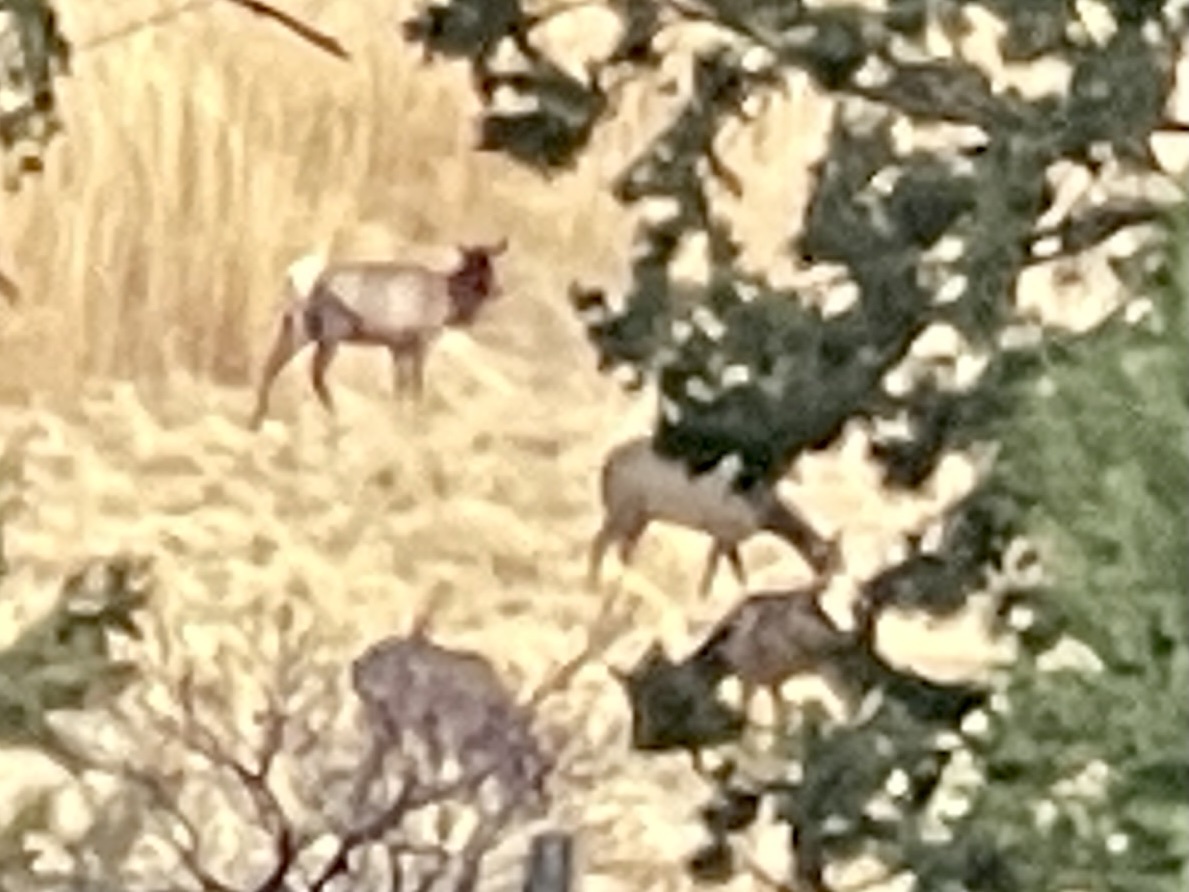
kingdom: Animalia
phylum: Chordata
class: Mammalia
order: Artiodactyla
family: Cervidae
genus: Cervus
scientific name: Cervus elaphus
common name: Red deer
